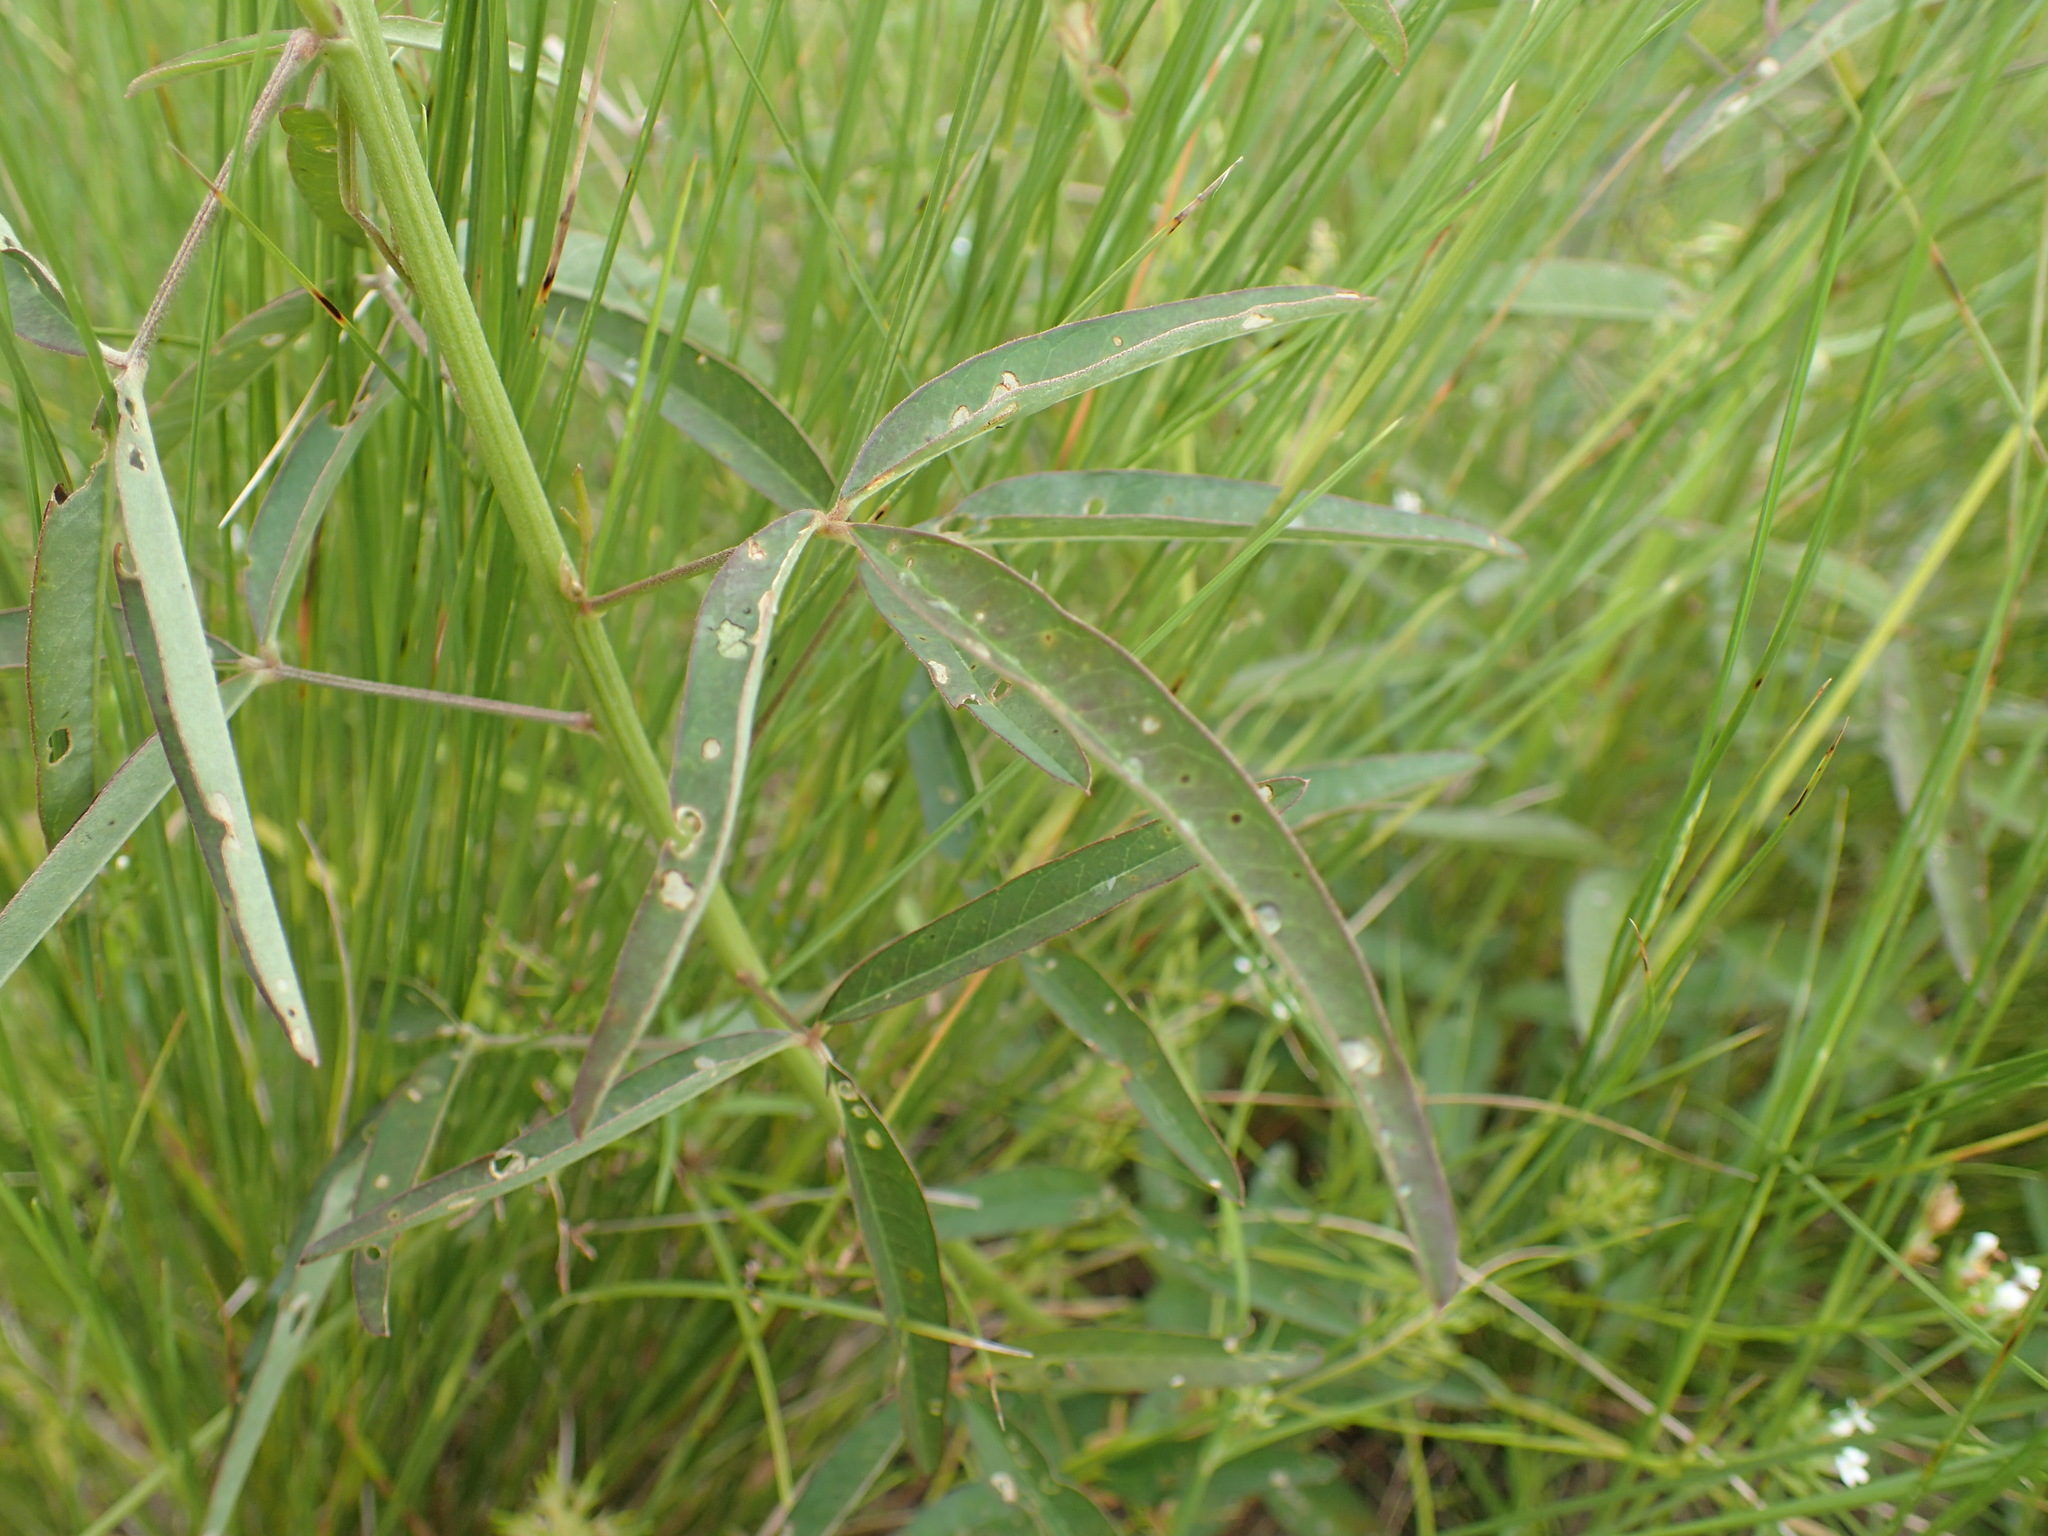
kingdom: Plantae
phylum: Tracheophyta
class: Magnoliopsida
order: Fabales
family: Fabaceae
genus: Crotalaria
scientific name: Crotalaria lanceolata
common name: Lanceleaf rattlebox
